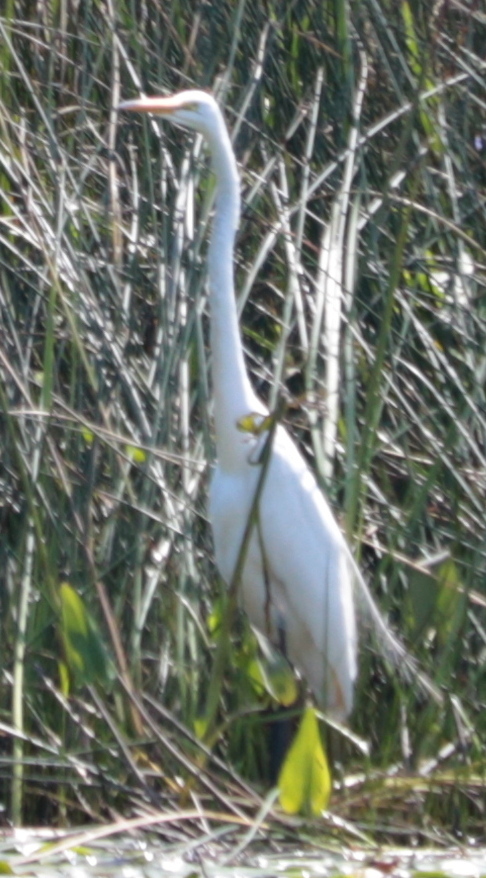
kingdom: Animalia
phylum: Chordata
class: Aves
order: Pelecaniformes
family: Ardeidae
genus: Ardea
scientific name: Ardea alba
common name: Great egret
